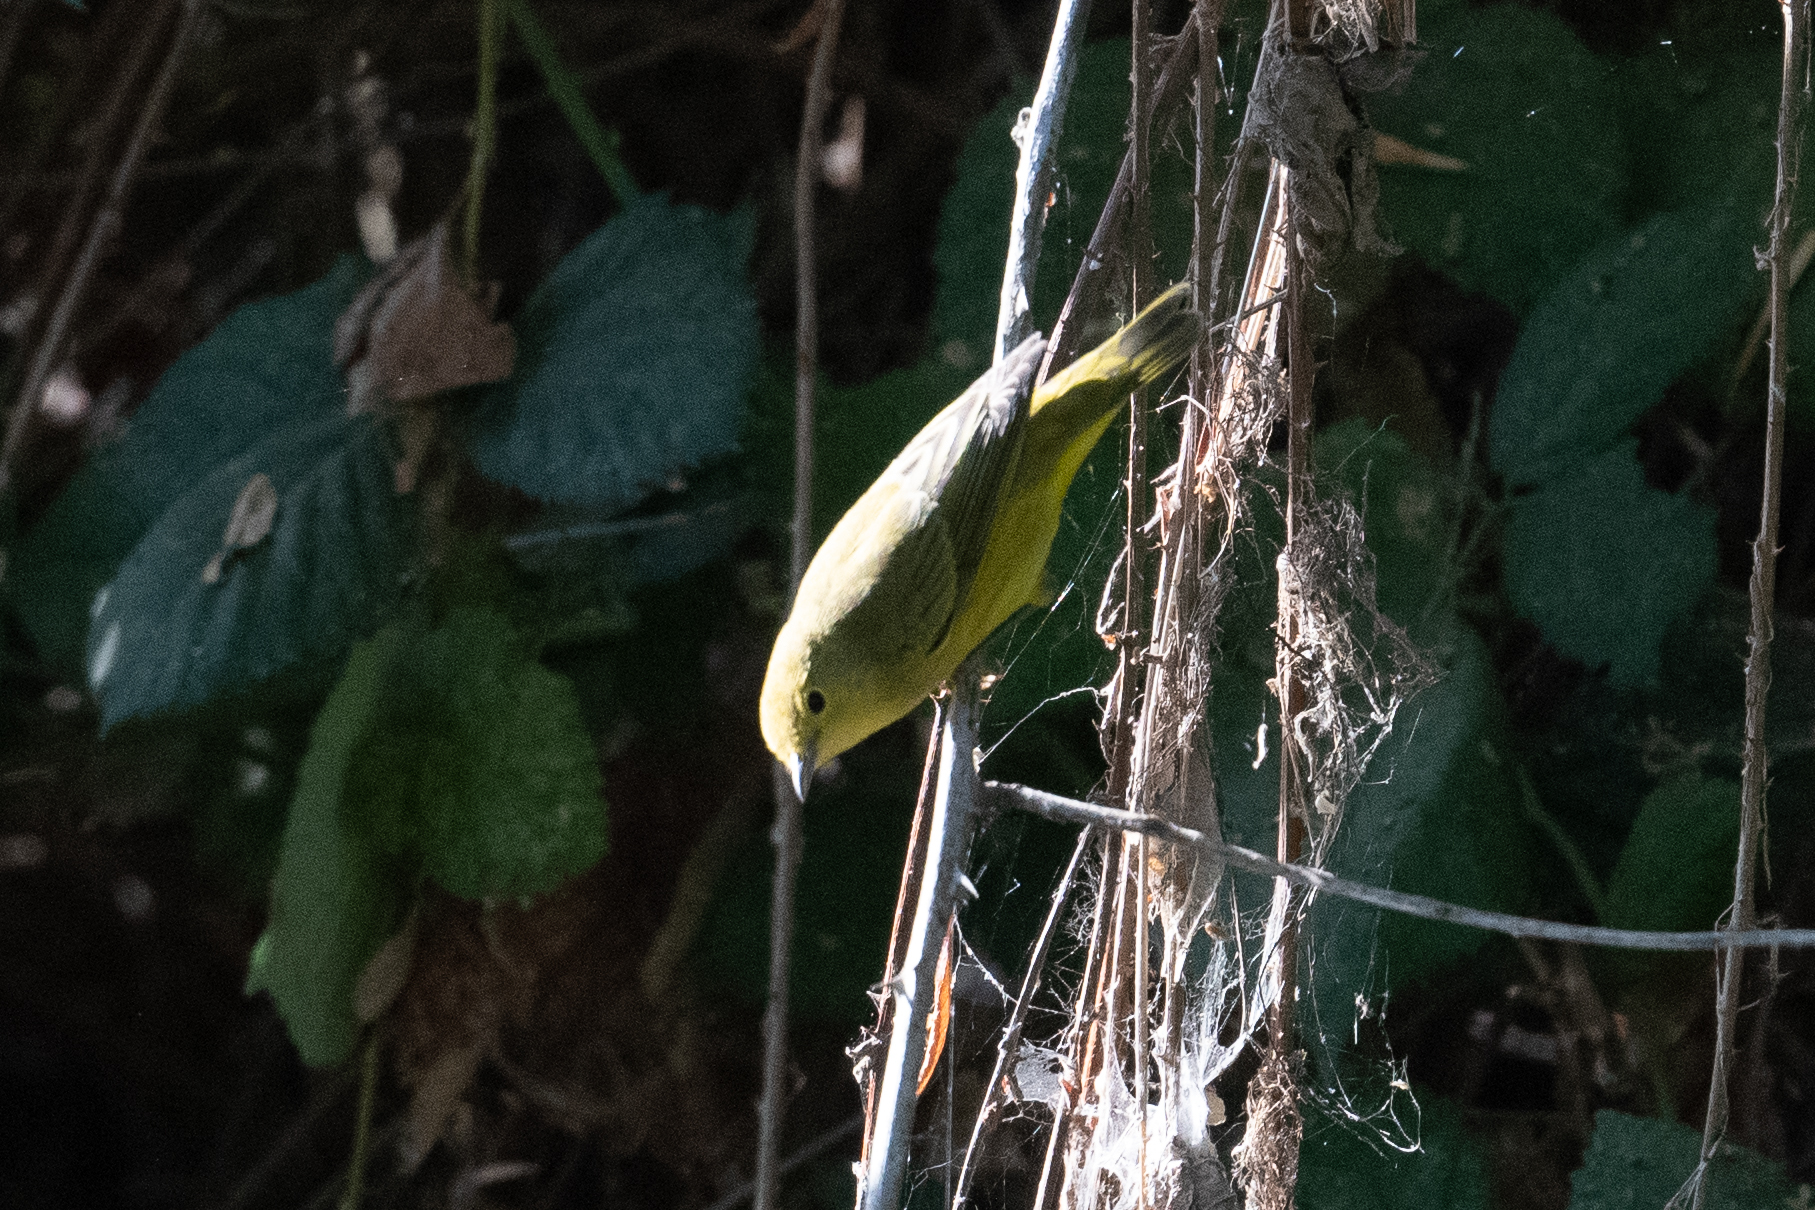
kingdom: Animalia
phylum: Chordata
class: Aves
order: Passeriformes
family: Parulidae
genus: Setophaga
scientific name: Setophaga petechia
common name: Yellow warbler
